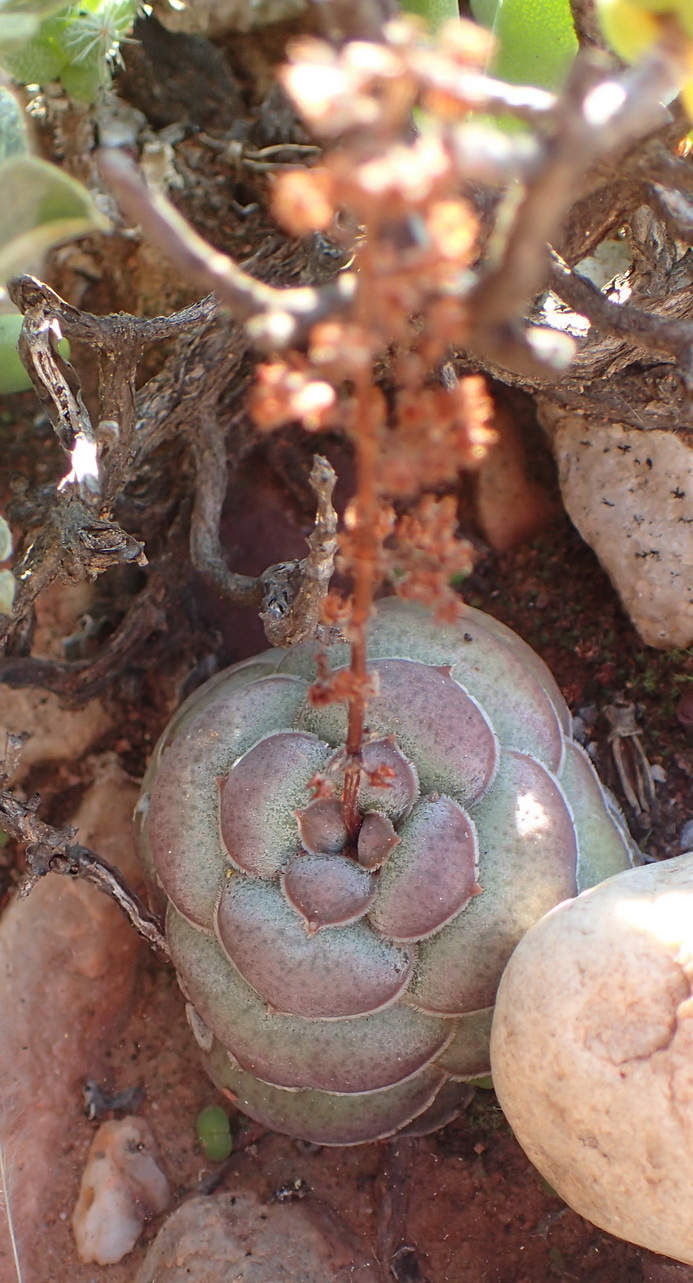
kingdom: Plantae
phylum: Tracheophyta
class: Magnoliopsida
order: Saxifragales
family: Crassulaceae
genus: Crassula
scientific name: Crassula hemisphaerica
